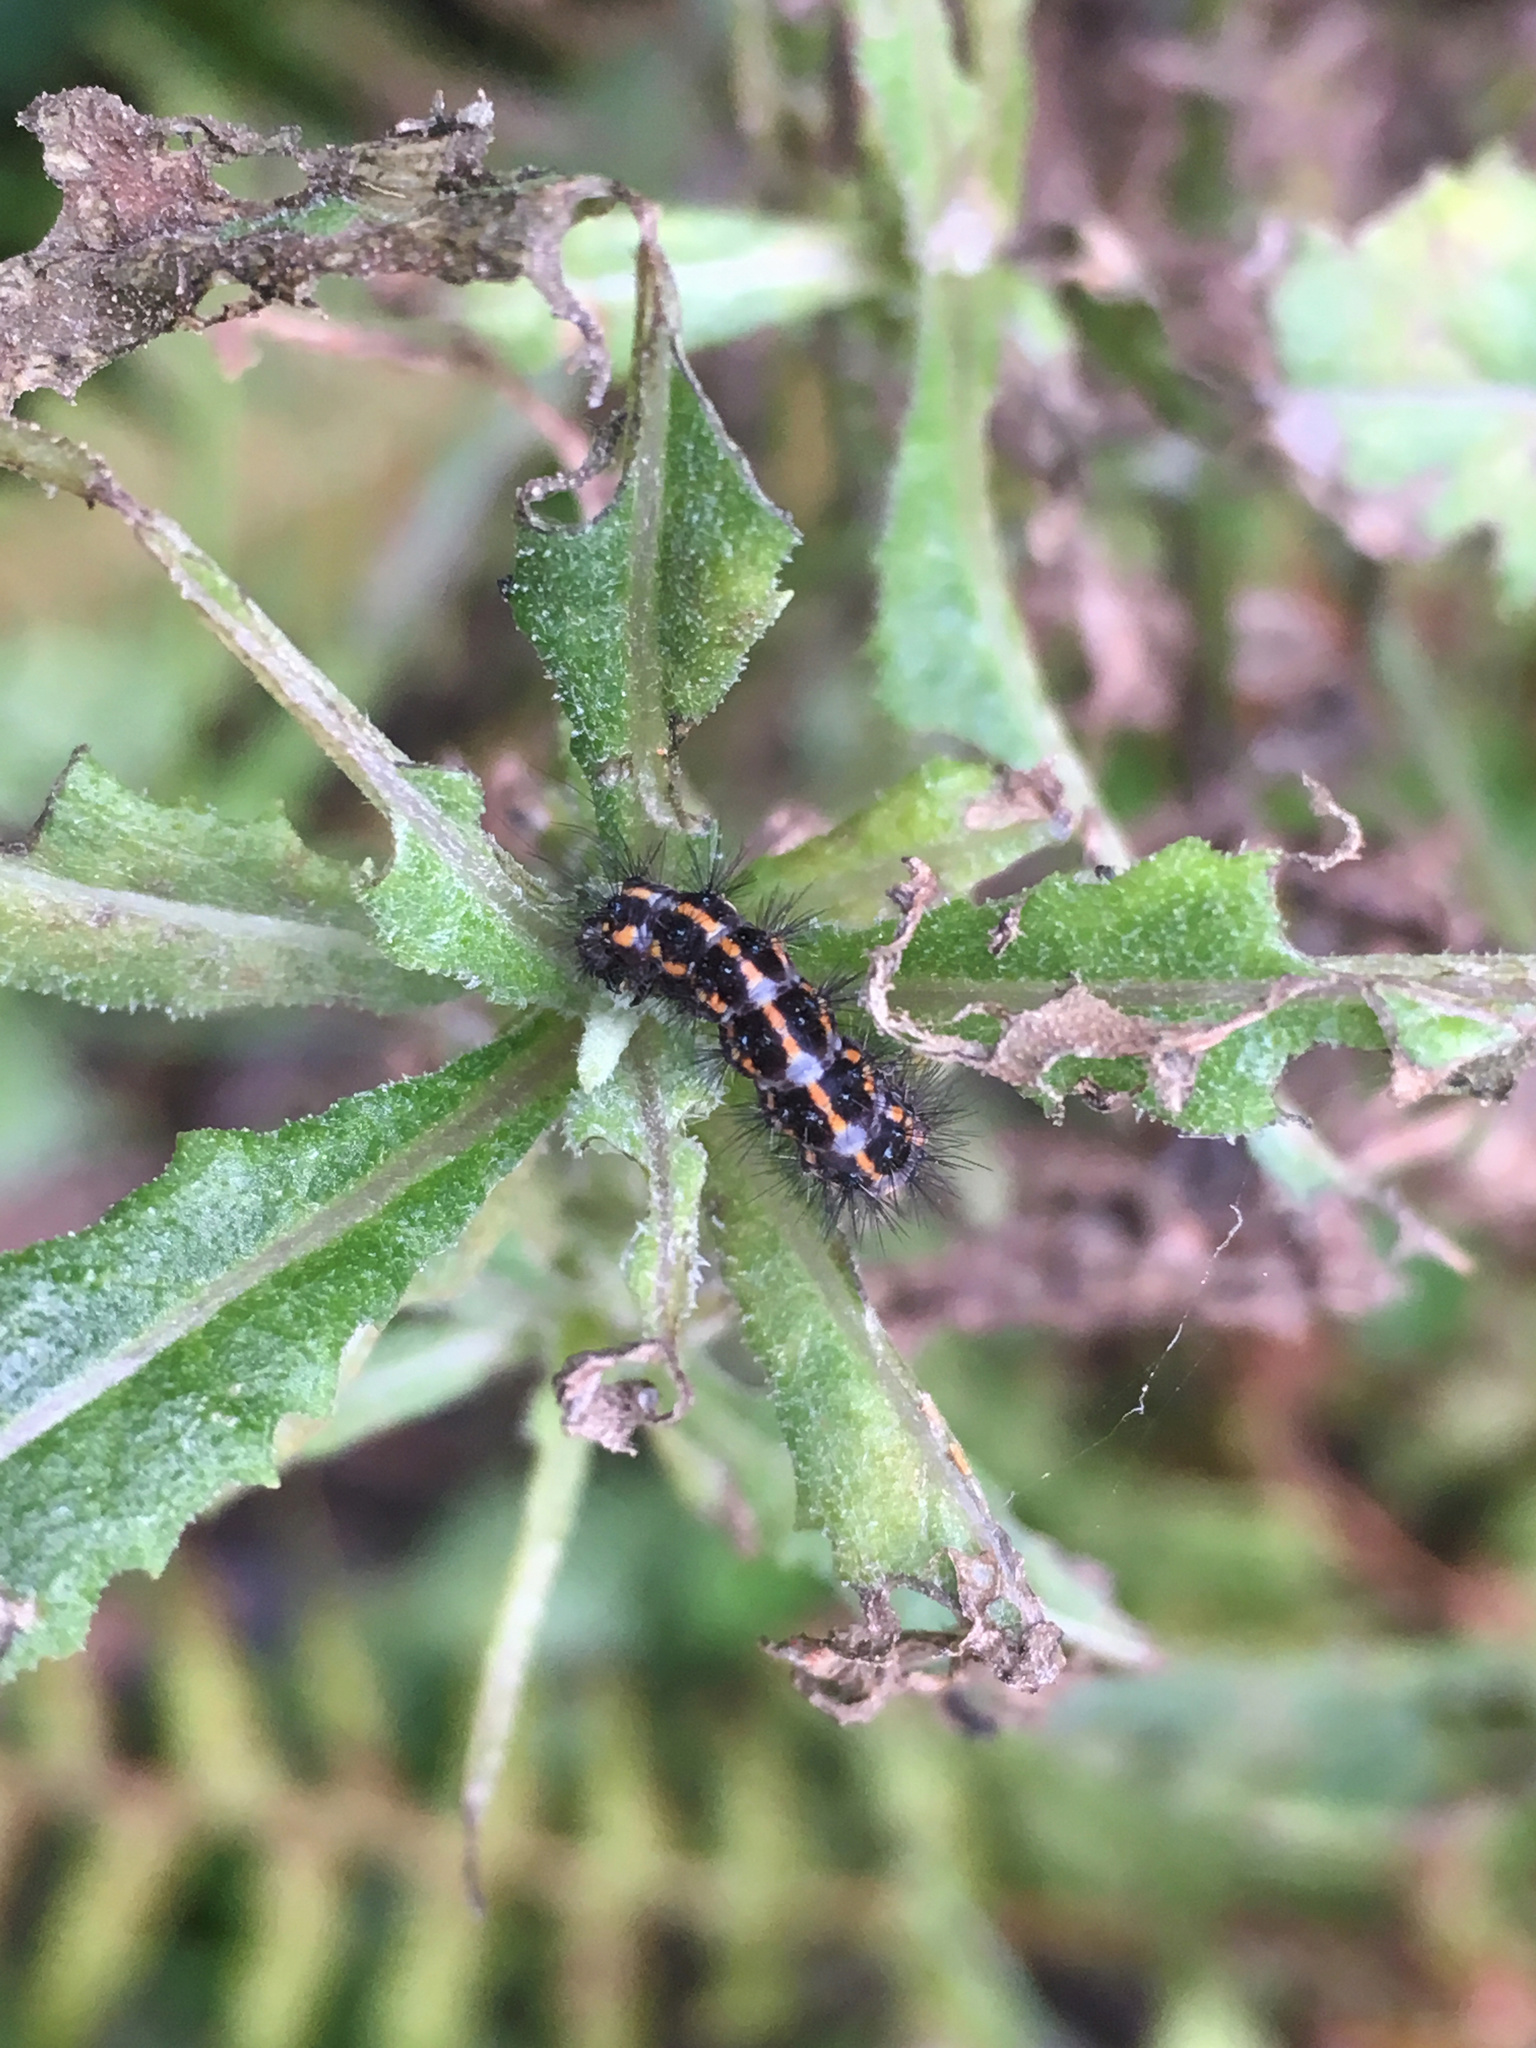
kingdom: Animalia
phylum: Arthropoda
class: Insecta
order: Lepidoptera
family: Erebidae
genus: Nyctemera
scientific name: Nyctemera annulatum
